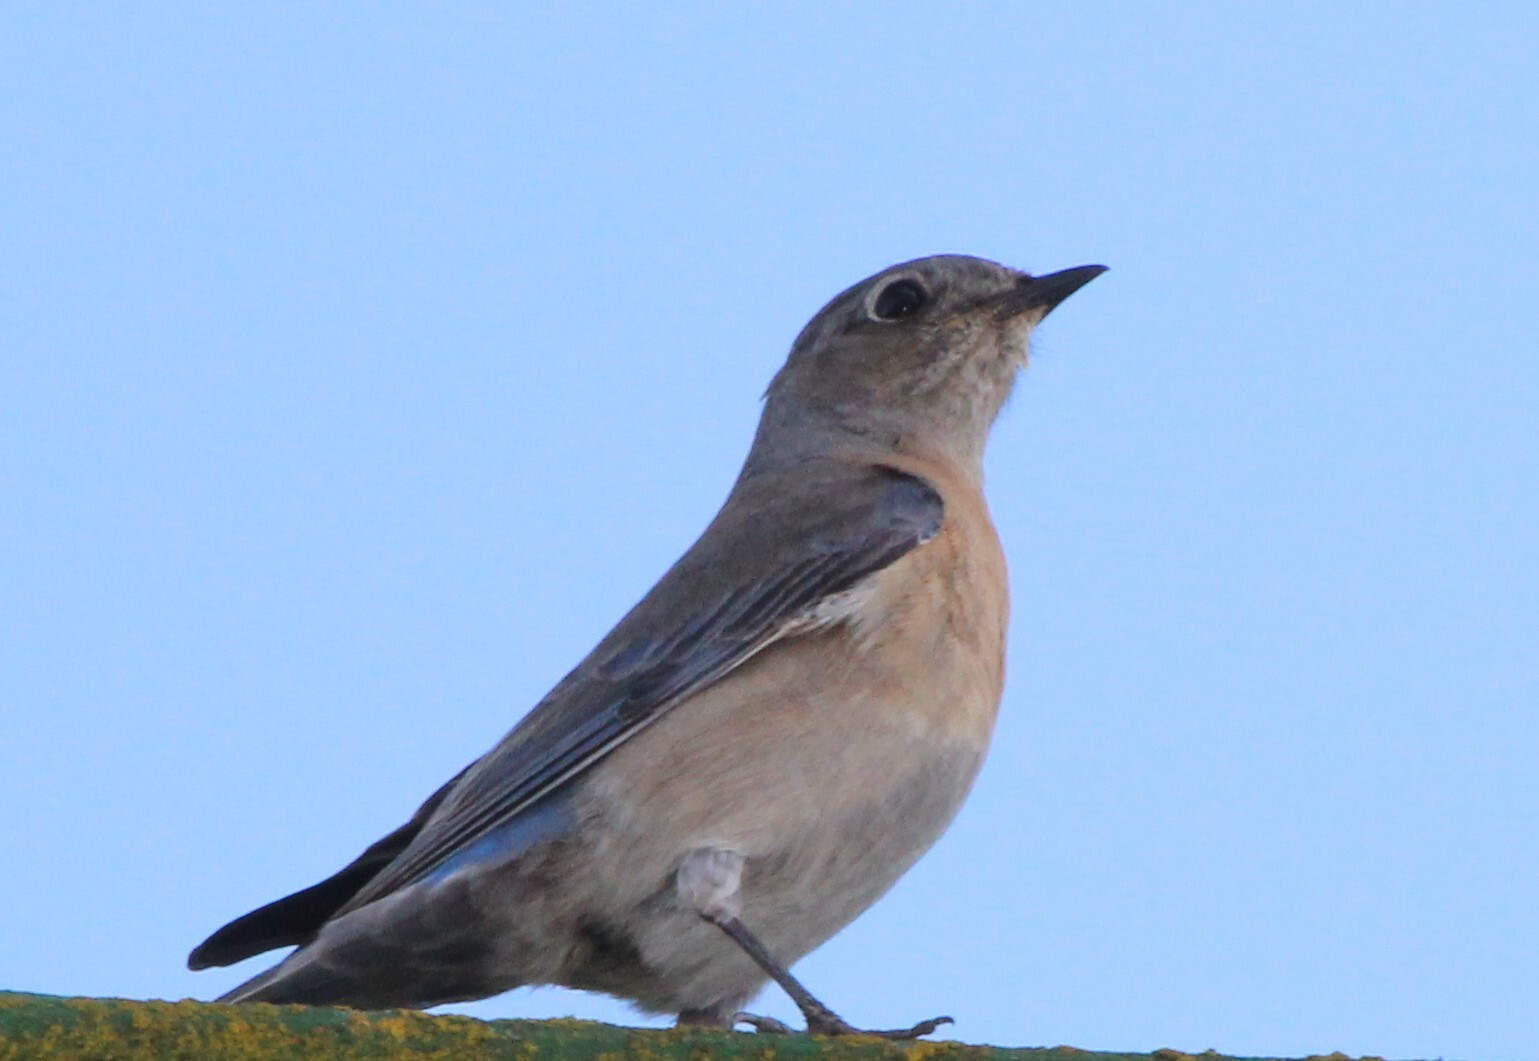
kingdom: Animalia
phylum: Chordata
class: Aves
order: Passeriformes
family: Turdidae
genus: Sialia
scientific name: Sialia mexicana
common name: Western bluebird
